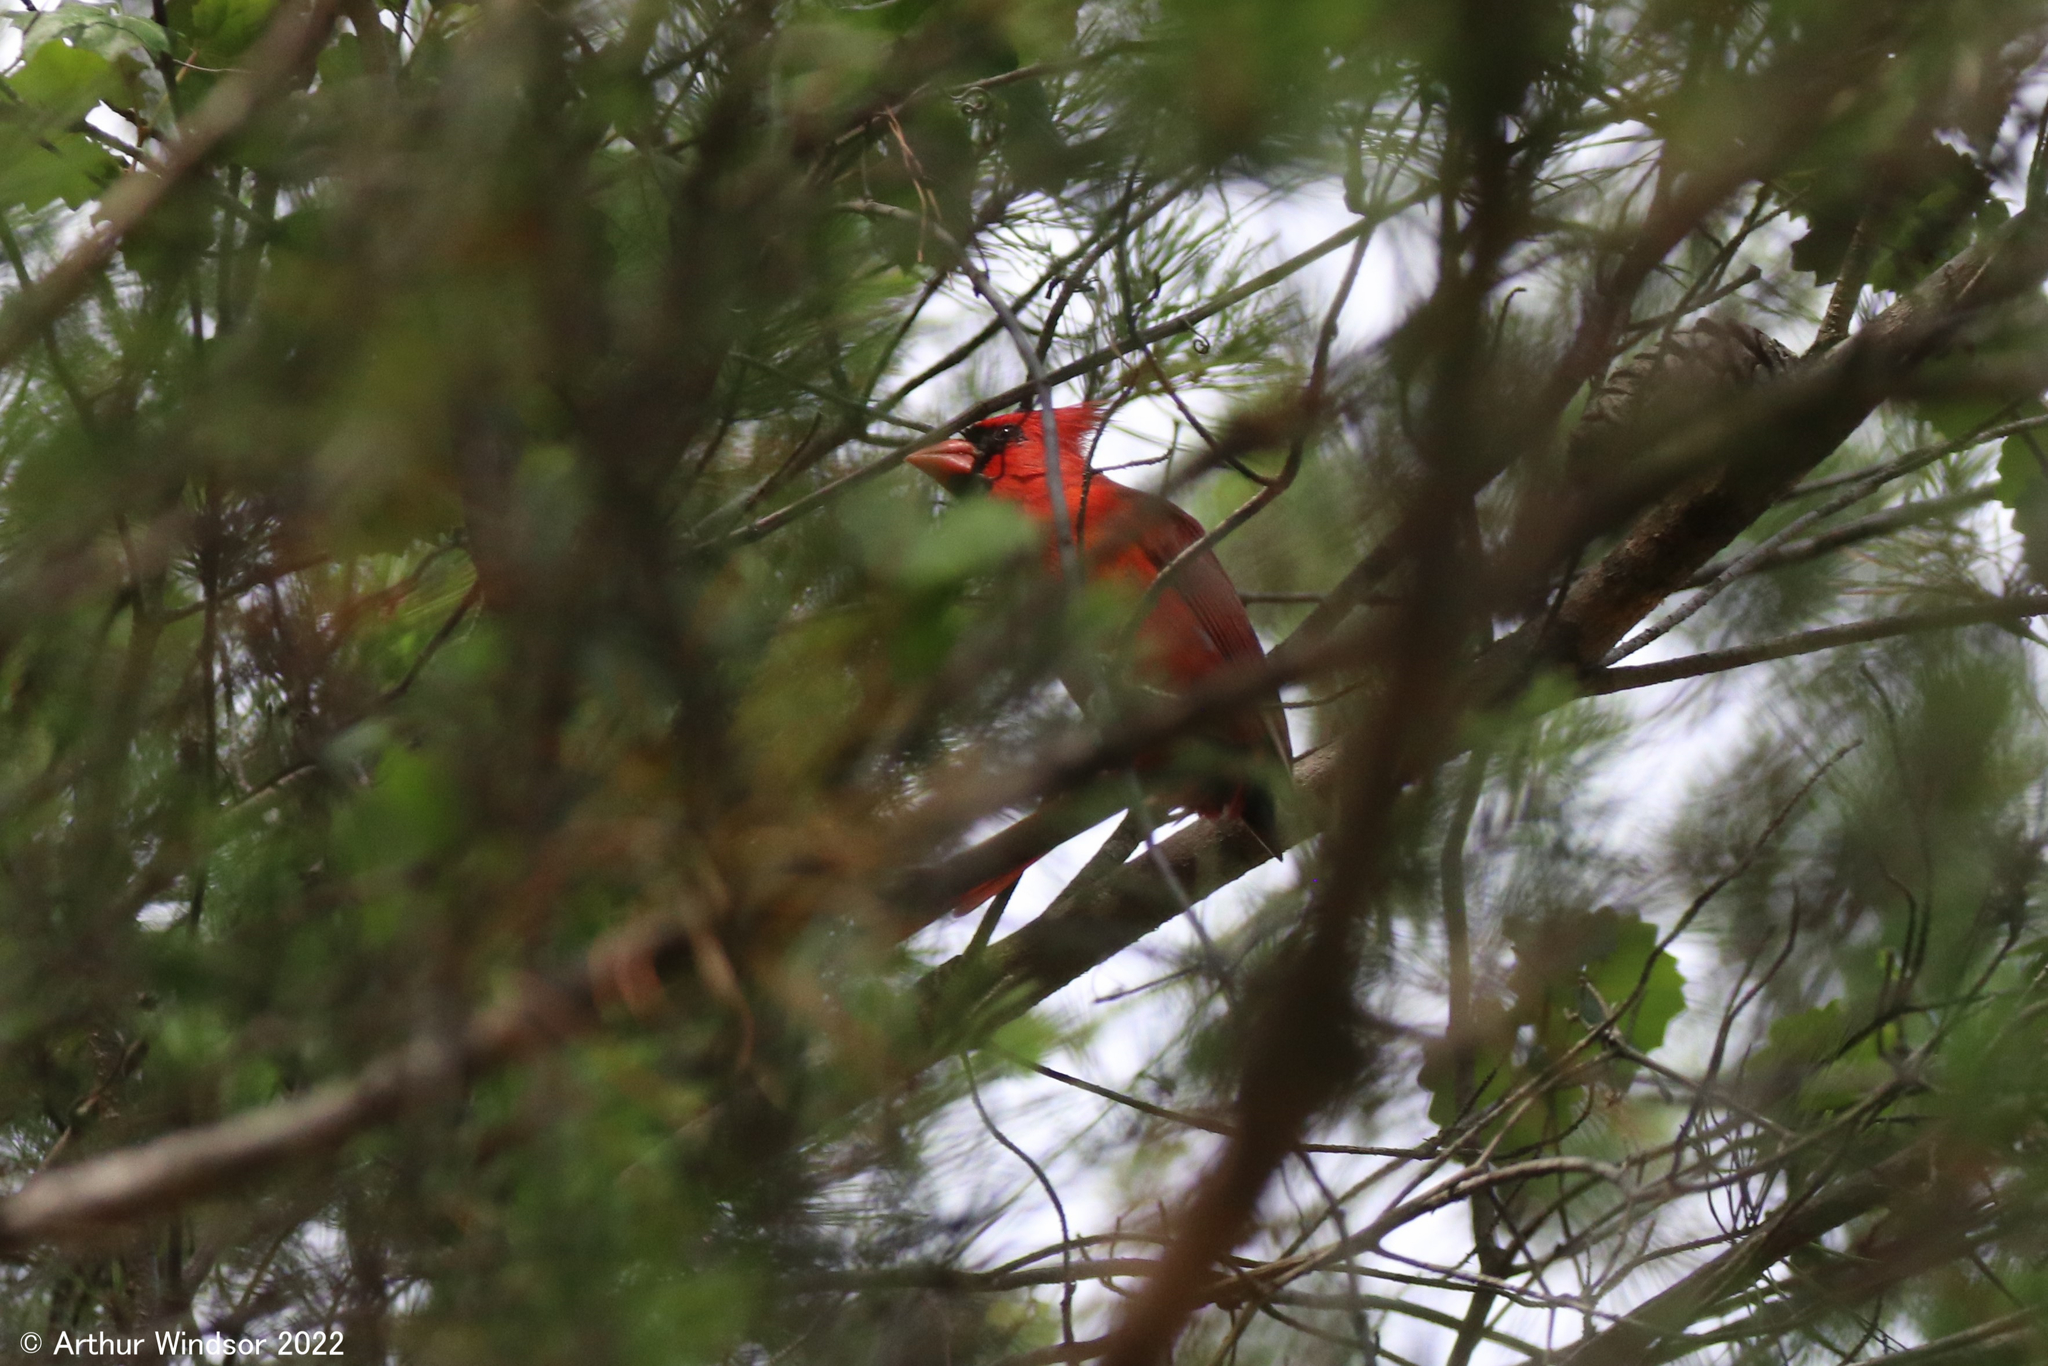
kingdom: Animalia
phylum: Chordata
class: Aves
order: Passeriformes
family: Cardinalidae
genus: Cardinalis
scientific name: Cardinalis cardinalis
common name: Northern cardinal
